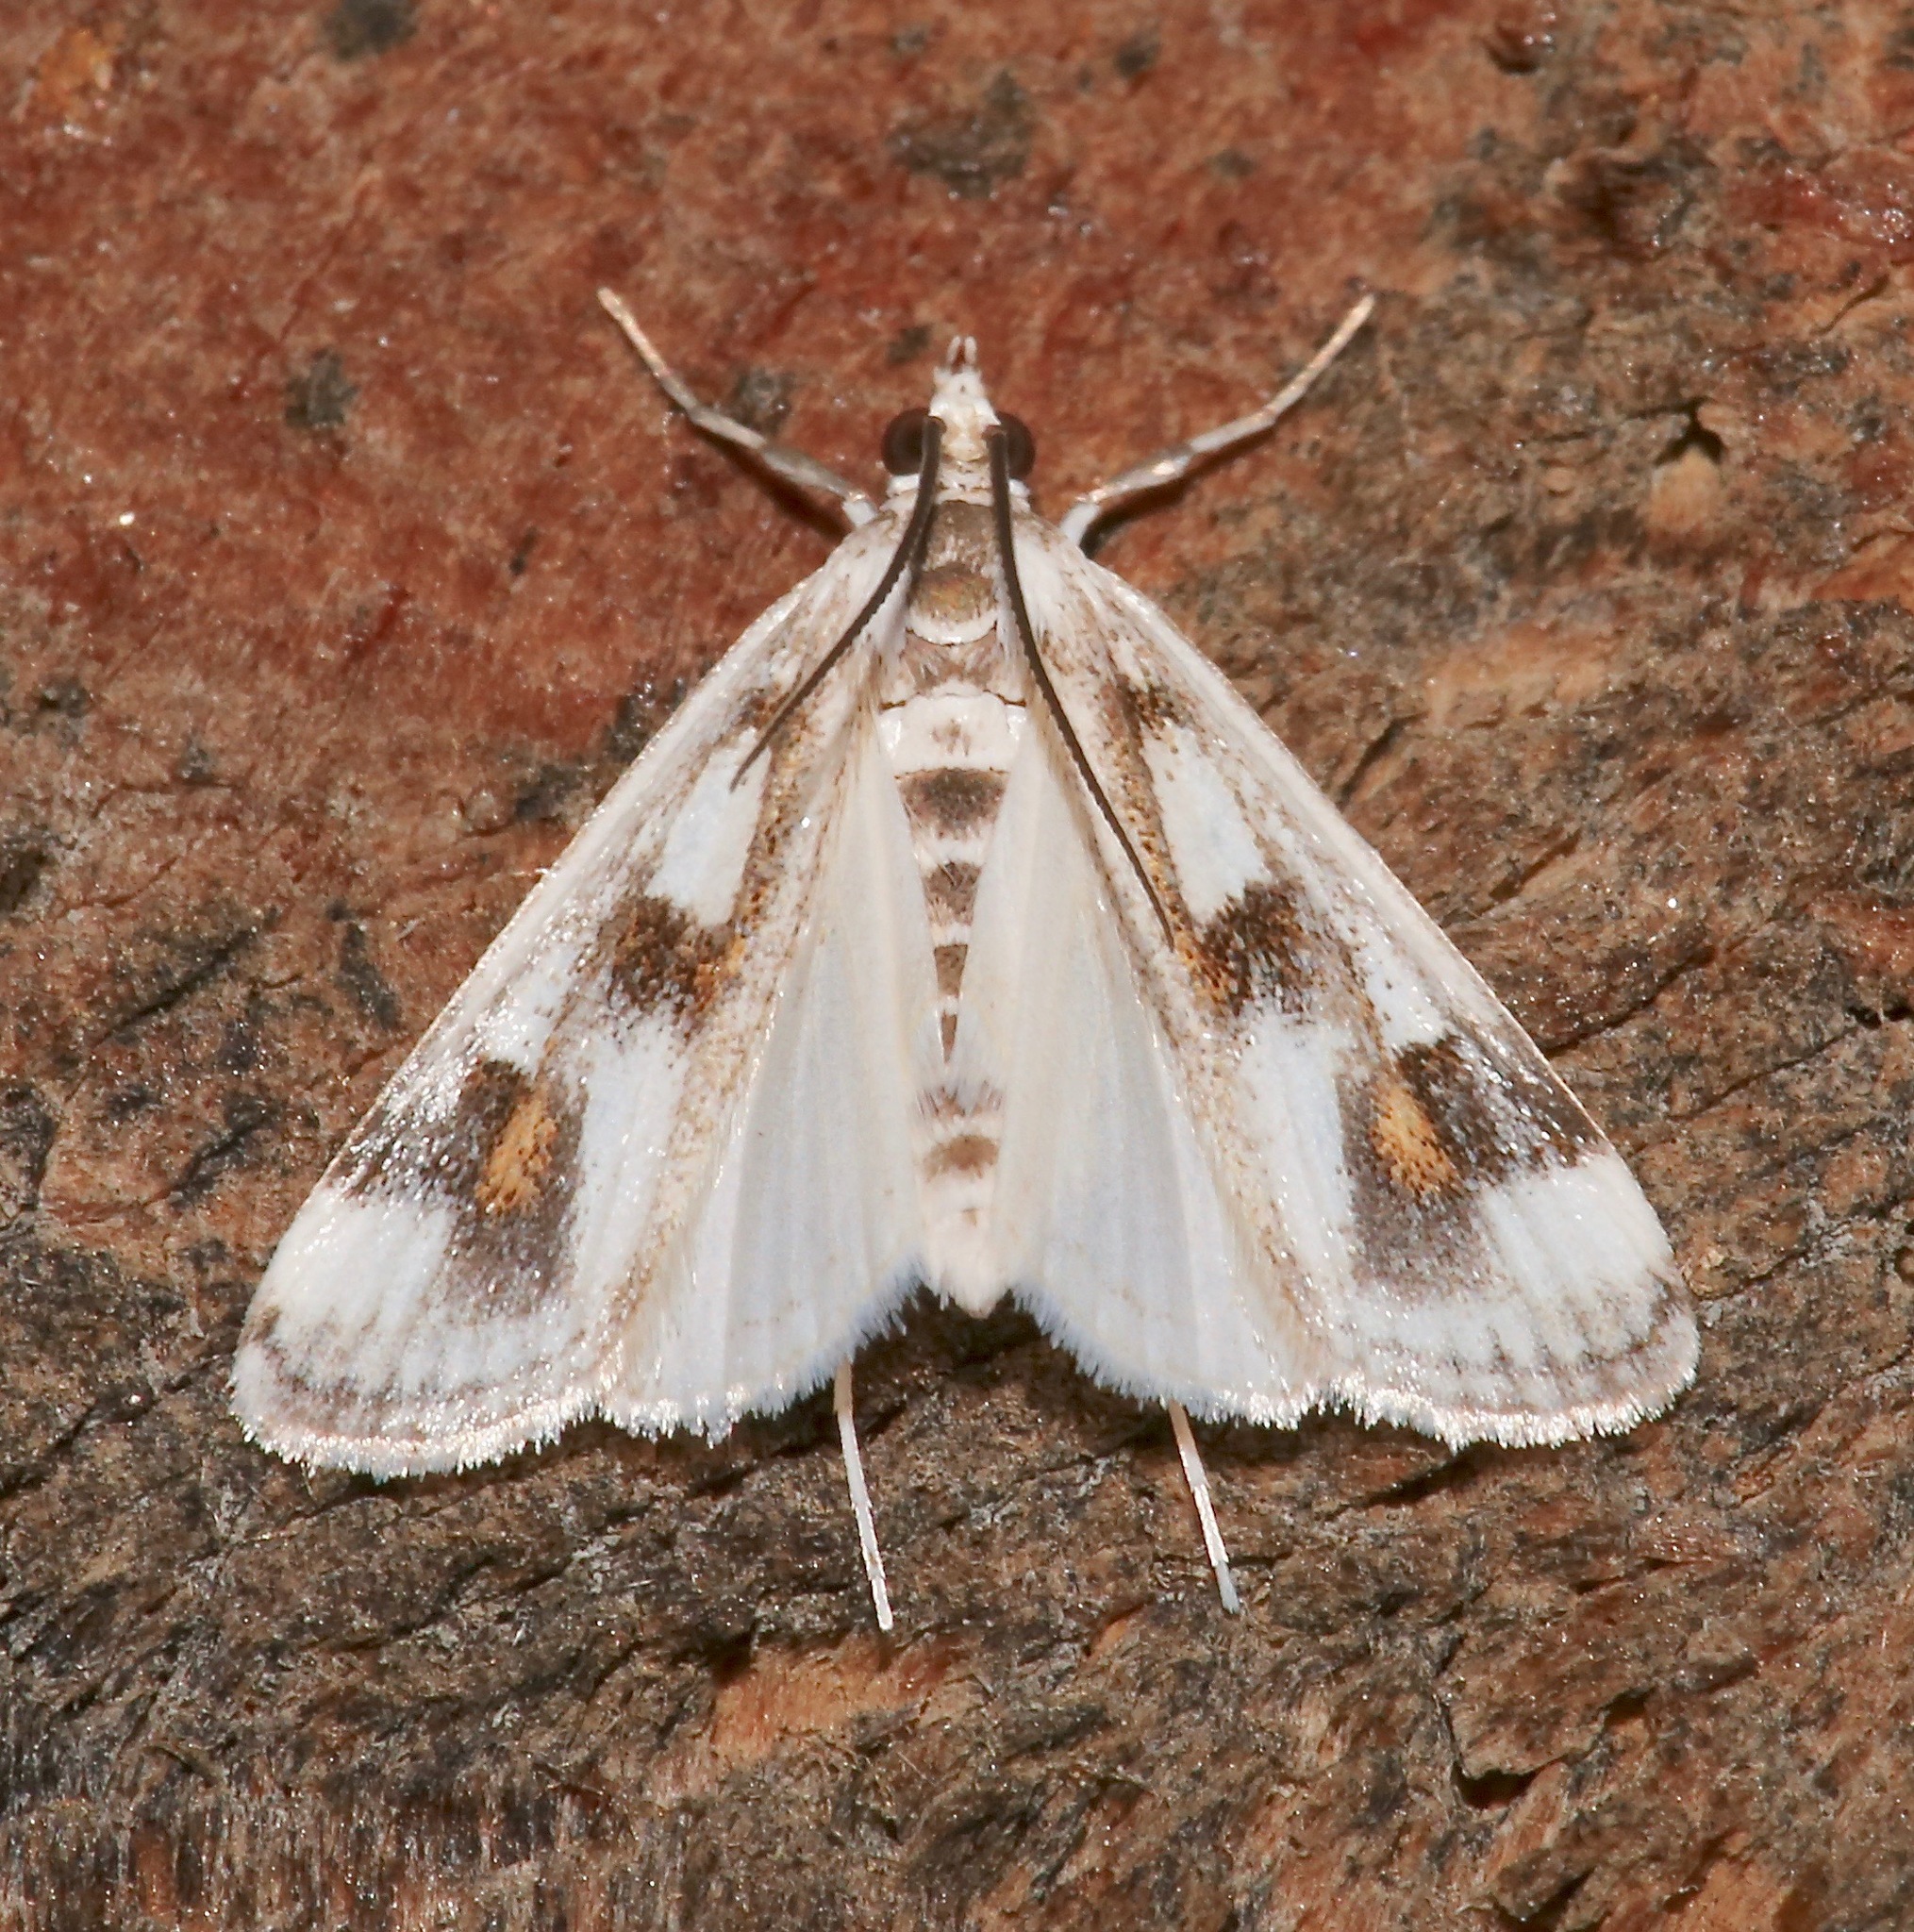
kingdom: Animalia
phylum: Arthropoda
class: Insecta
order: Lepidoptera
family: Crambidae
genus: Parapoynx
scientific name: Parapoynx maculalis
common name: Polymorphic pondweed moth
